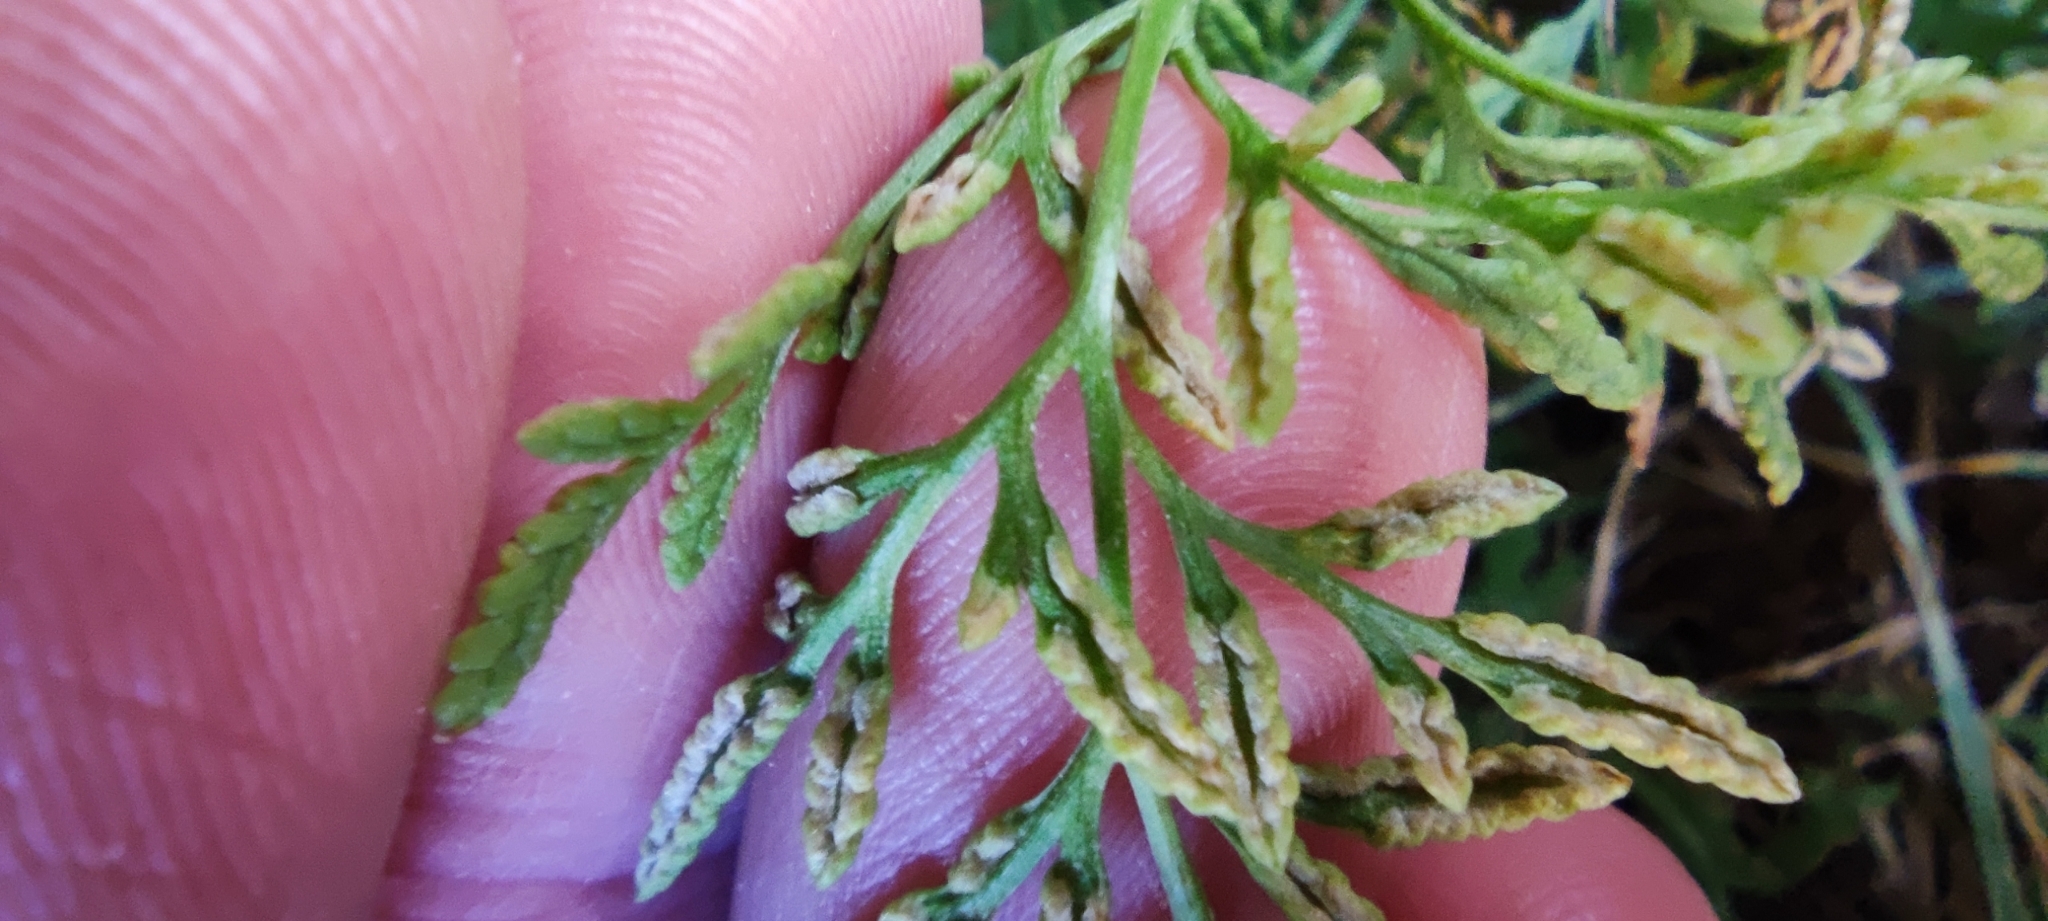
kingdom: Plantae
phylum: Tracheophyta
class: Polypodiopsida
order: Polypodiales
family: Pteridaceae
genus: Cryptogramma
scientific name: Cryptogramma crispa
